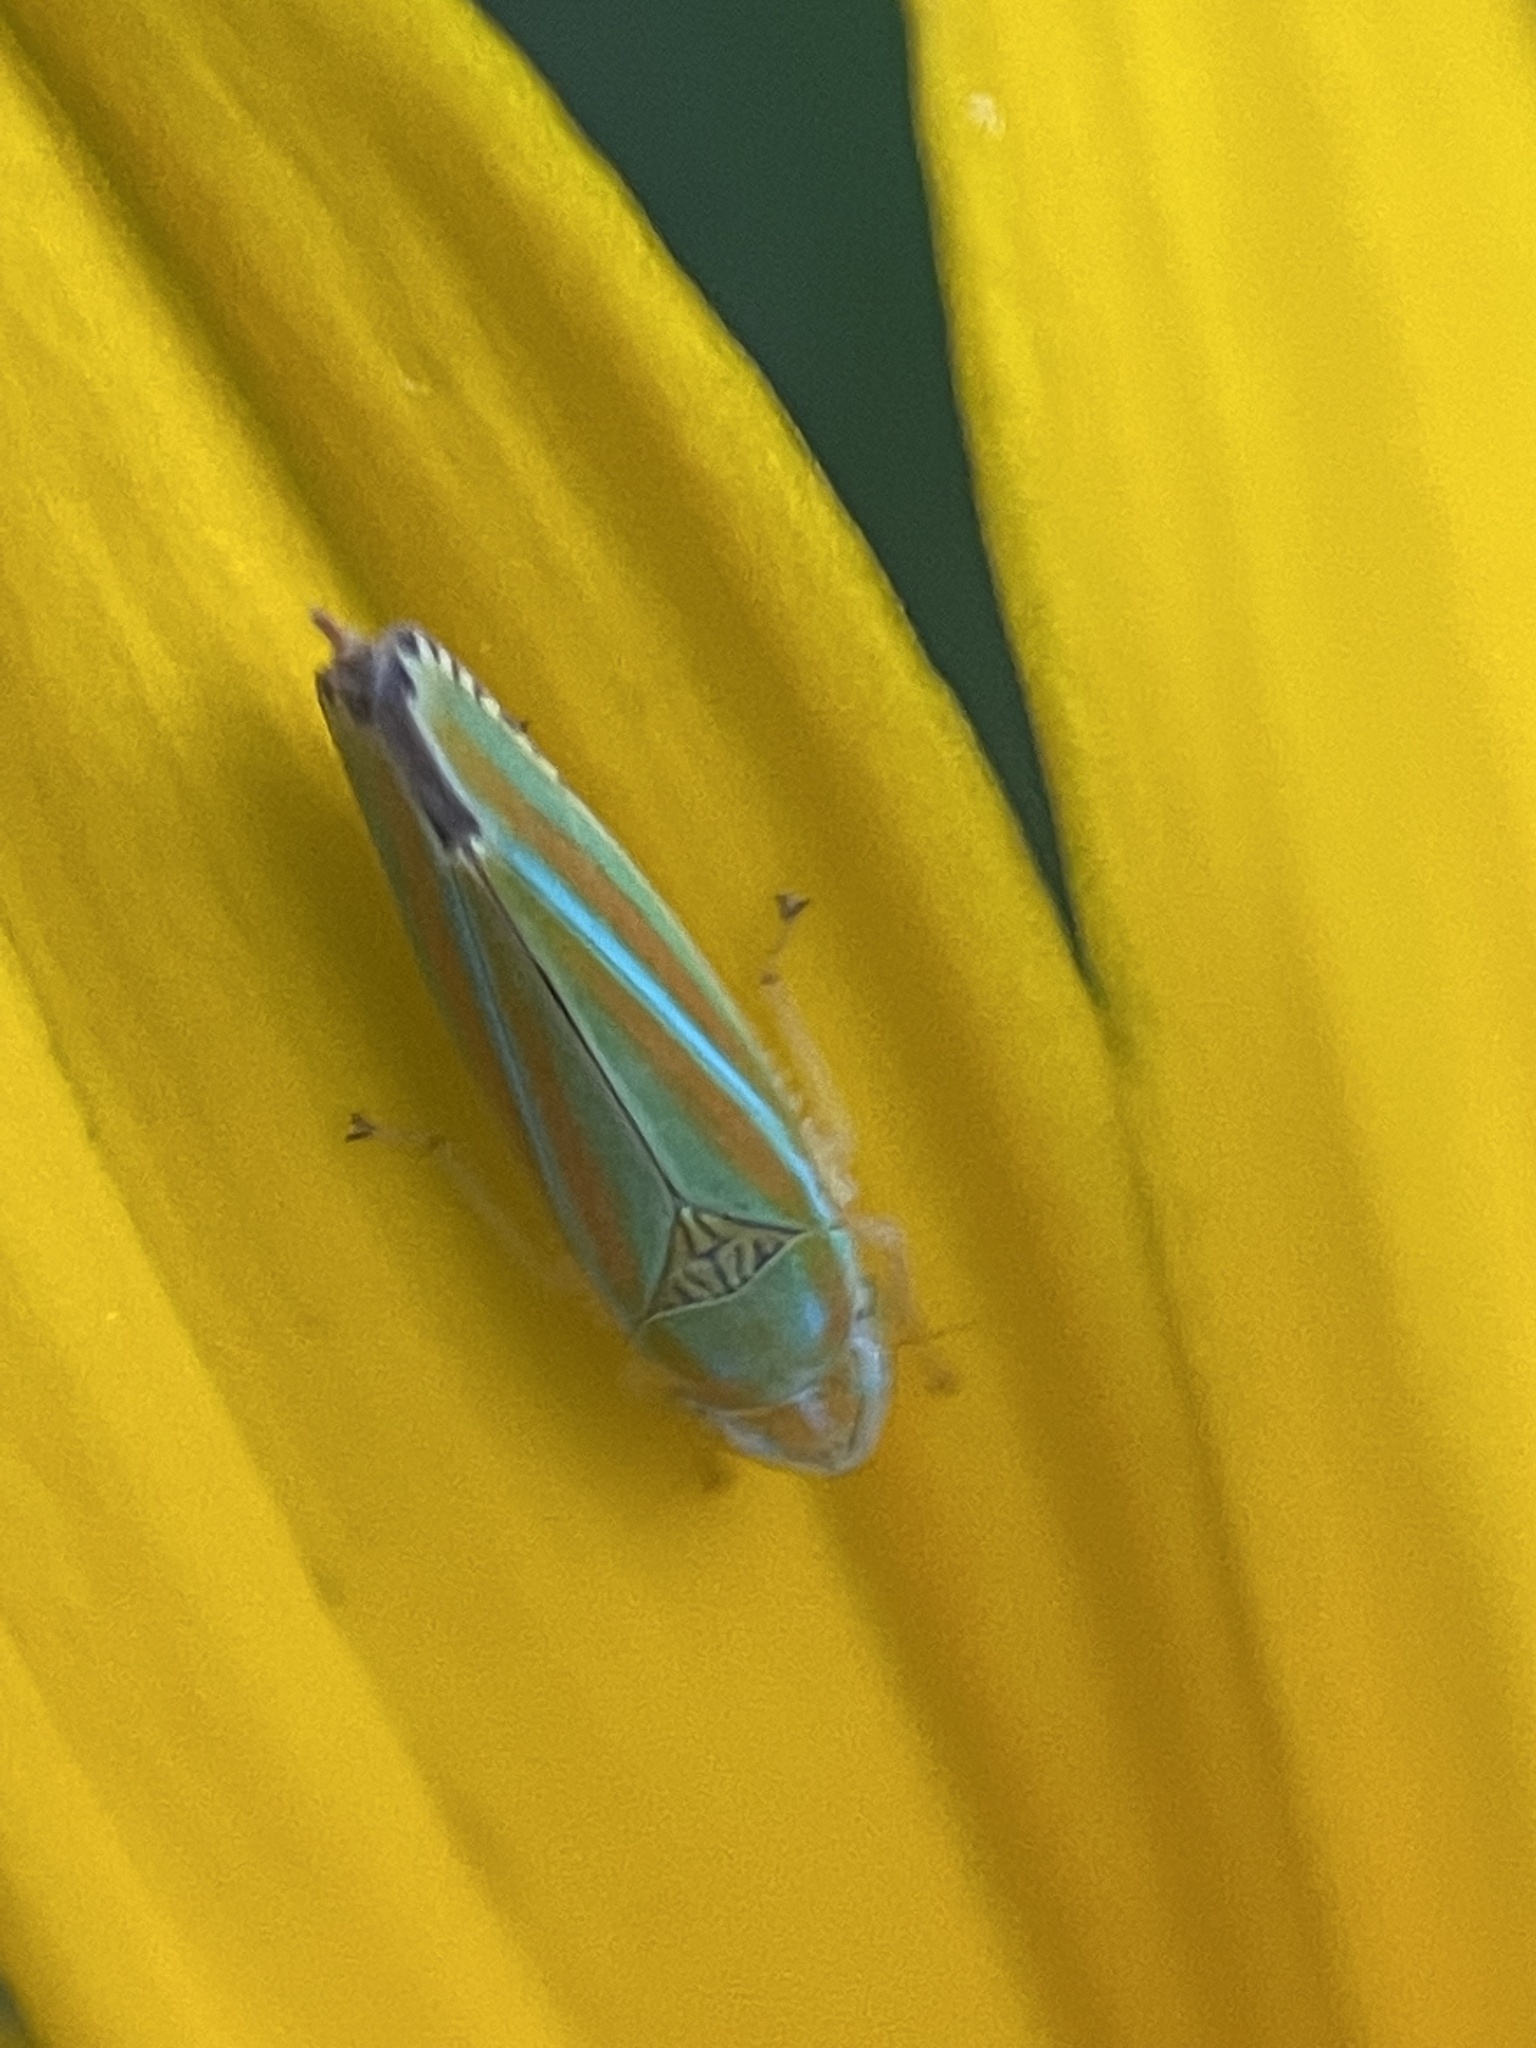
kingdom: Animalia
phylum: Arthropoda
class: Insecta
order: Hemiptera
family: Cicadellidae
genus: Graphocephala
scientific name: Graphocephala versuta
